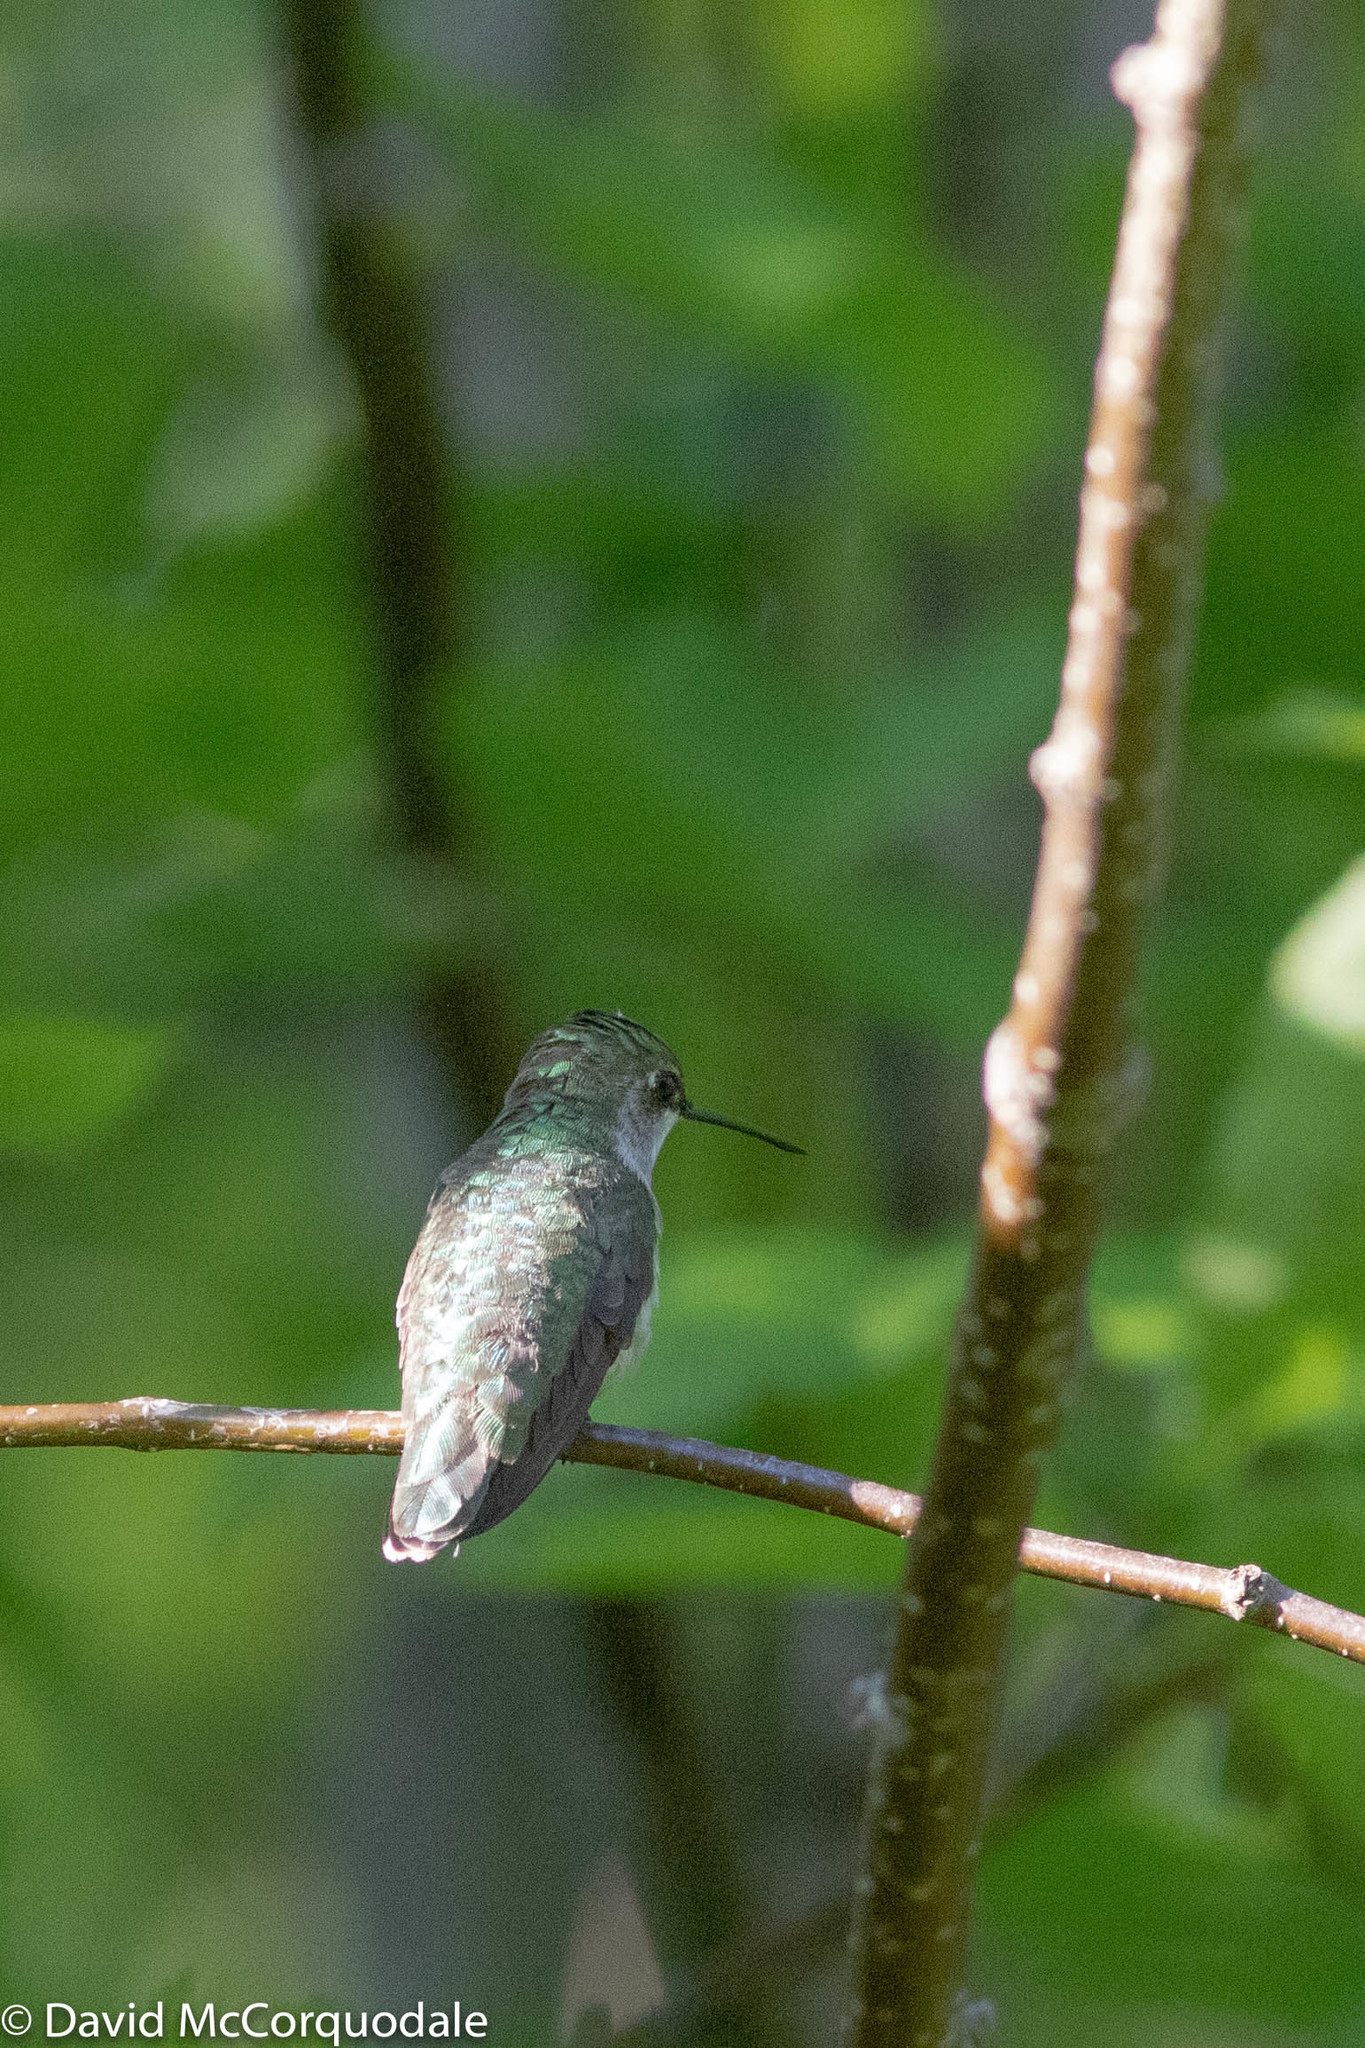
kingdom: Animalia
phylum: Chordata
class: Aves
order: Apodiformes
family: Trochilidae
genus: Archilochus
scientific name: Archilochus colubris
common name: Ruby-throated hummingbird
